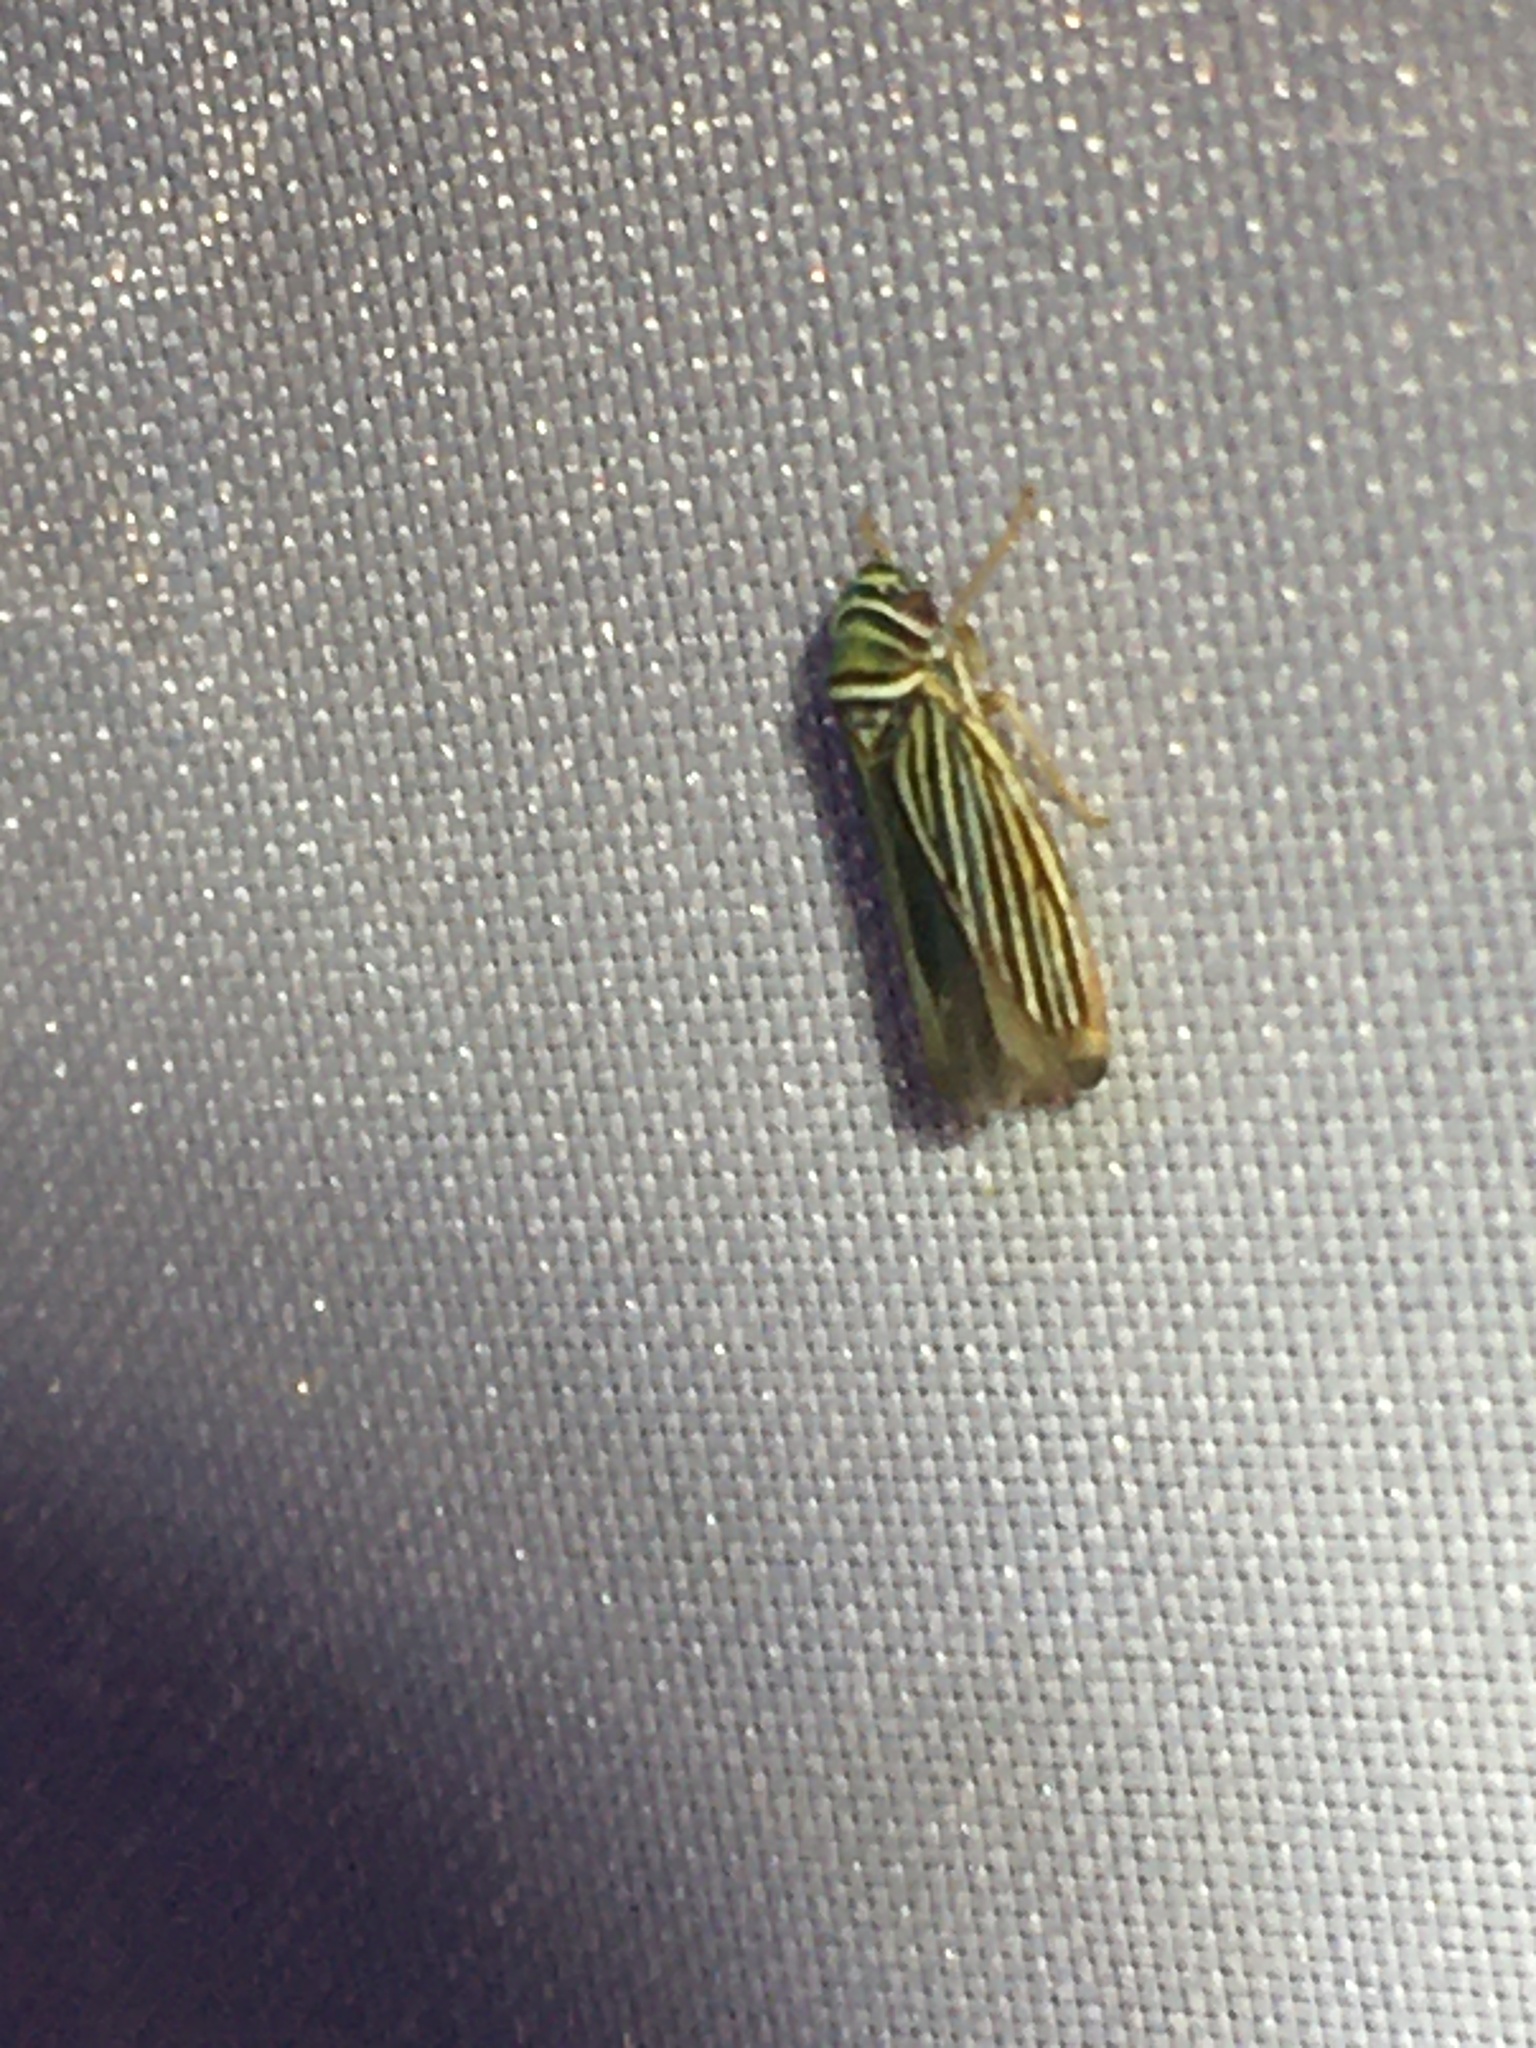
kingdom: Animalia
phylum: Arthropoda
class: Insecta
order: Hemiptera
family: Cicadellidae
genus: Tylozygus
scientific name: Tylozygus bifidus
